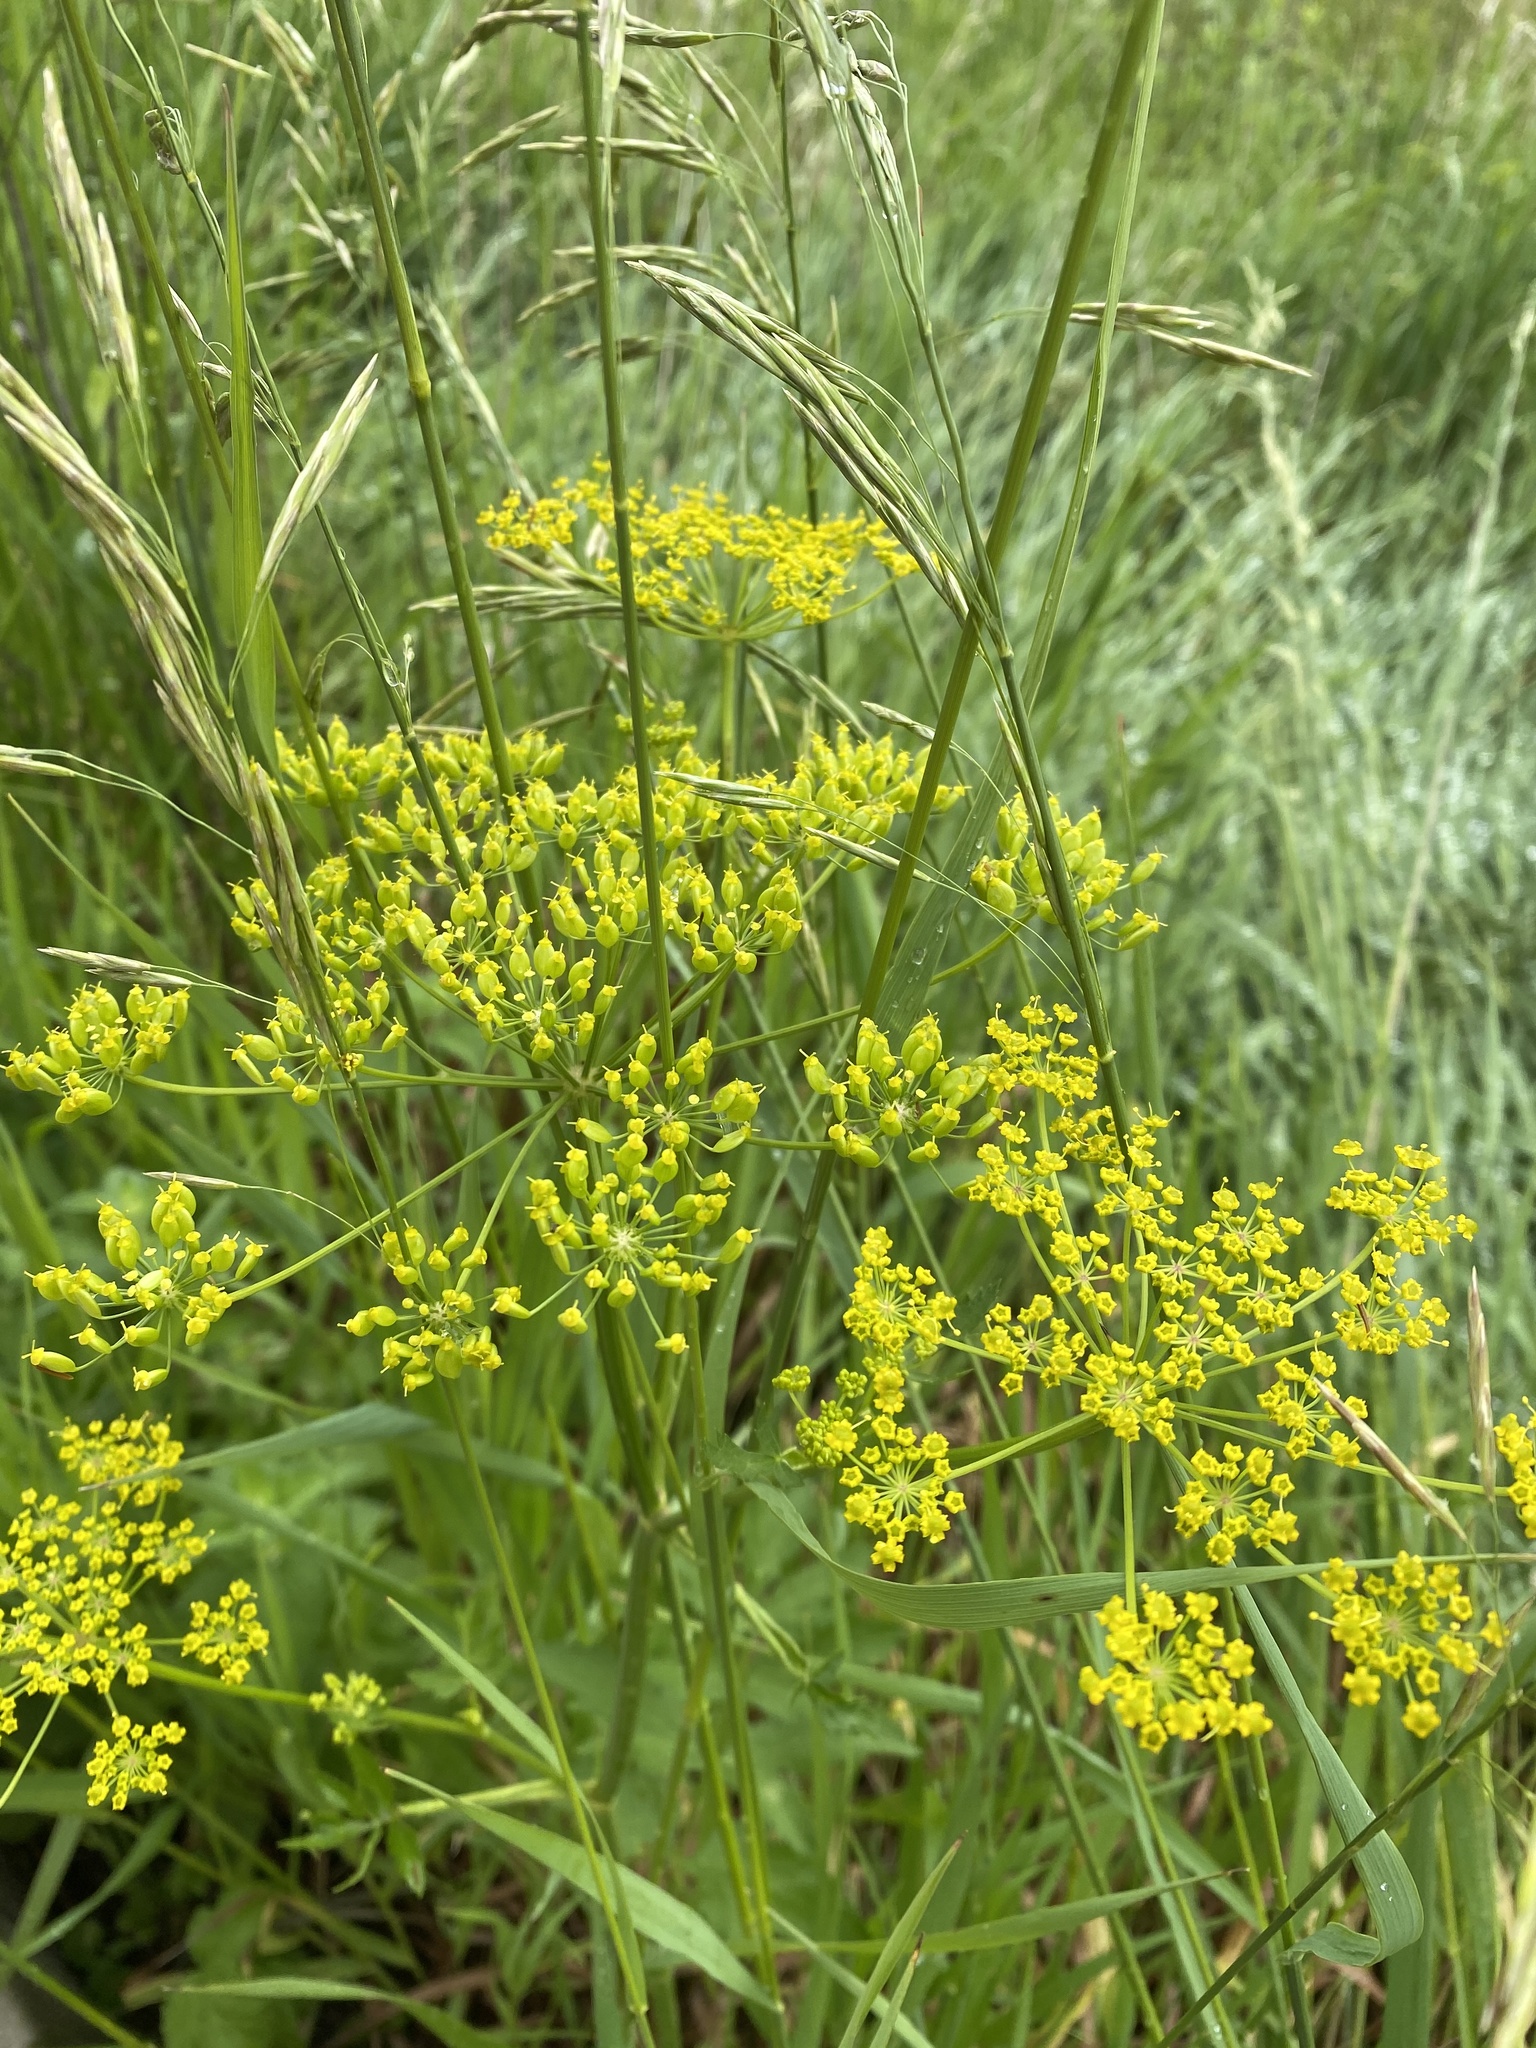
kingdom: Plantae
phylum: Tracheophyta
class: Magnoliopsida
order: Apiales
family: Apiaceae
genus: Pastinaca
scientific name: Pastinaca sativa
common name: Wild parsnip
